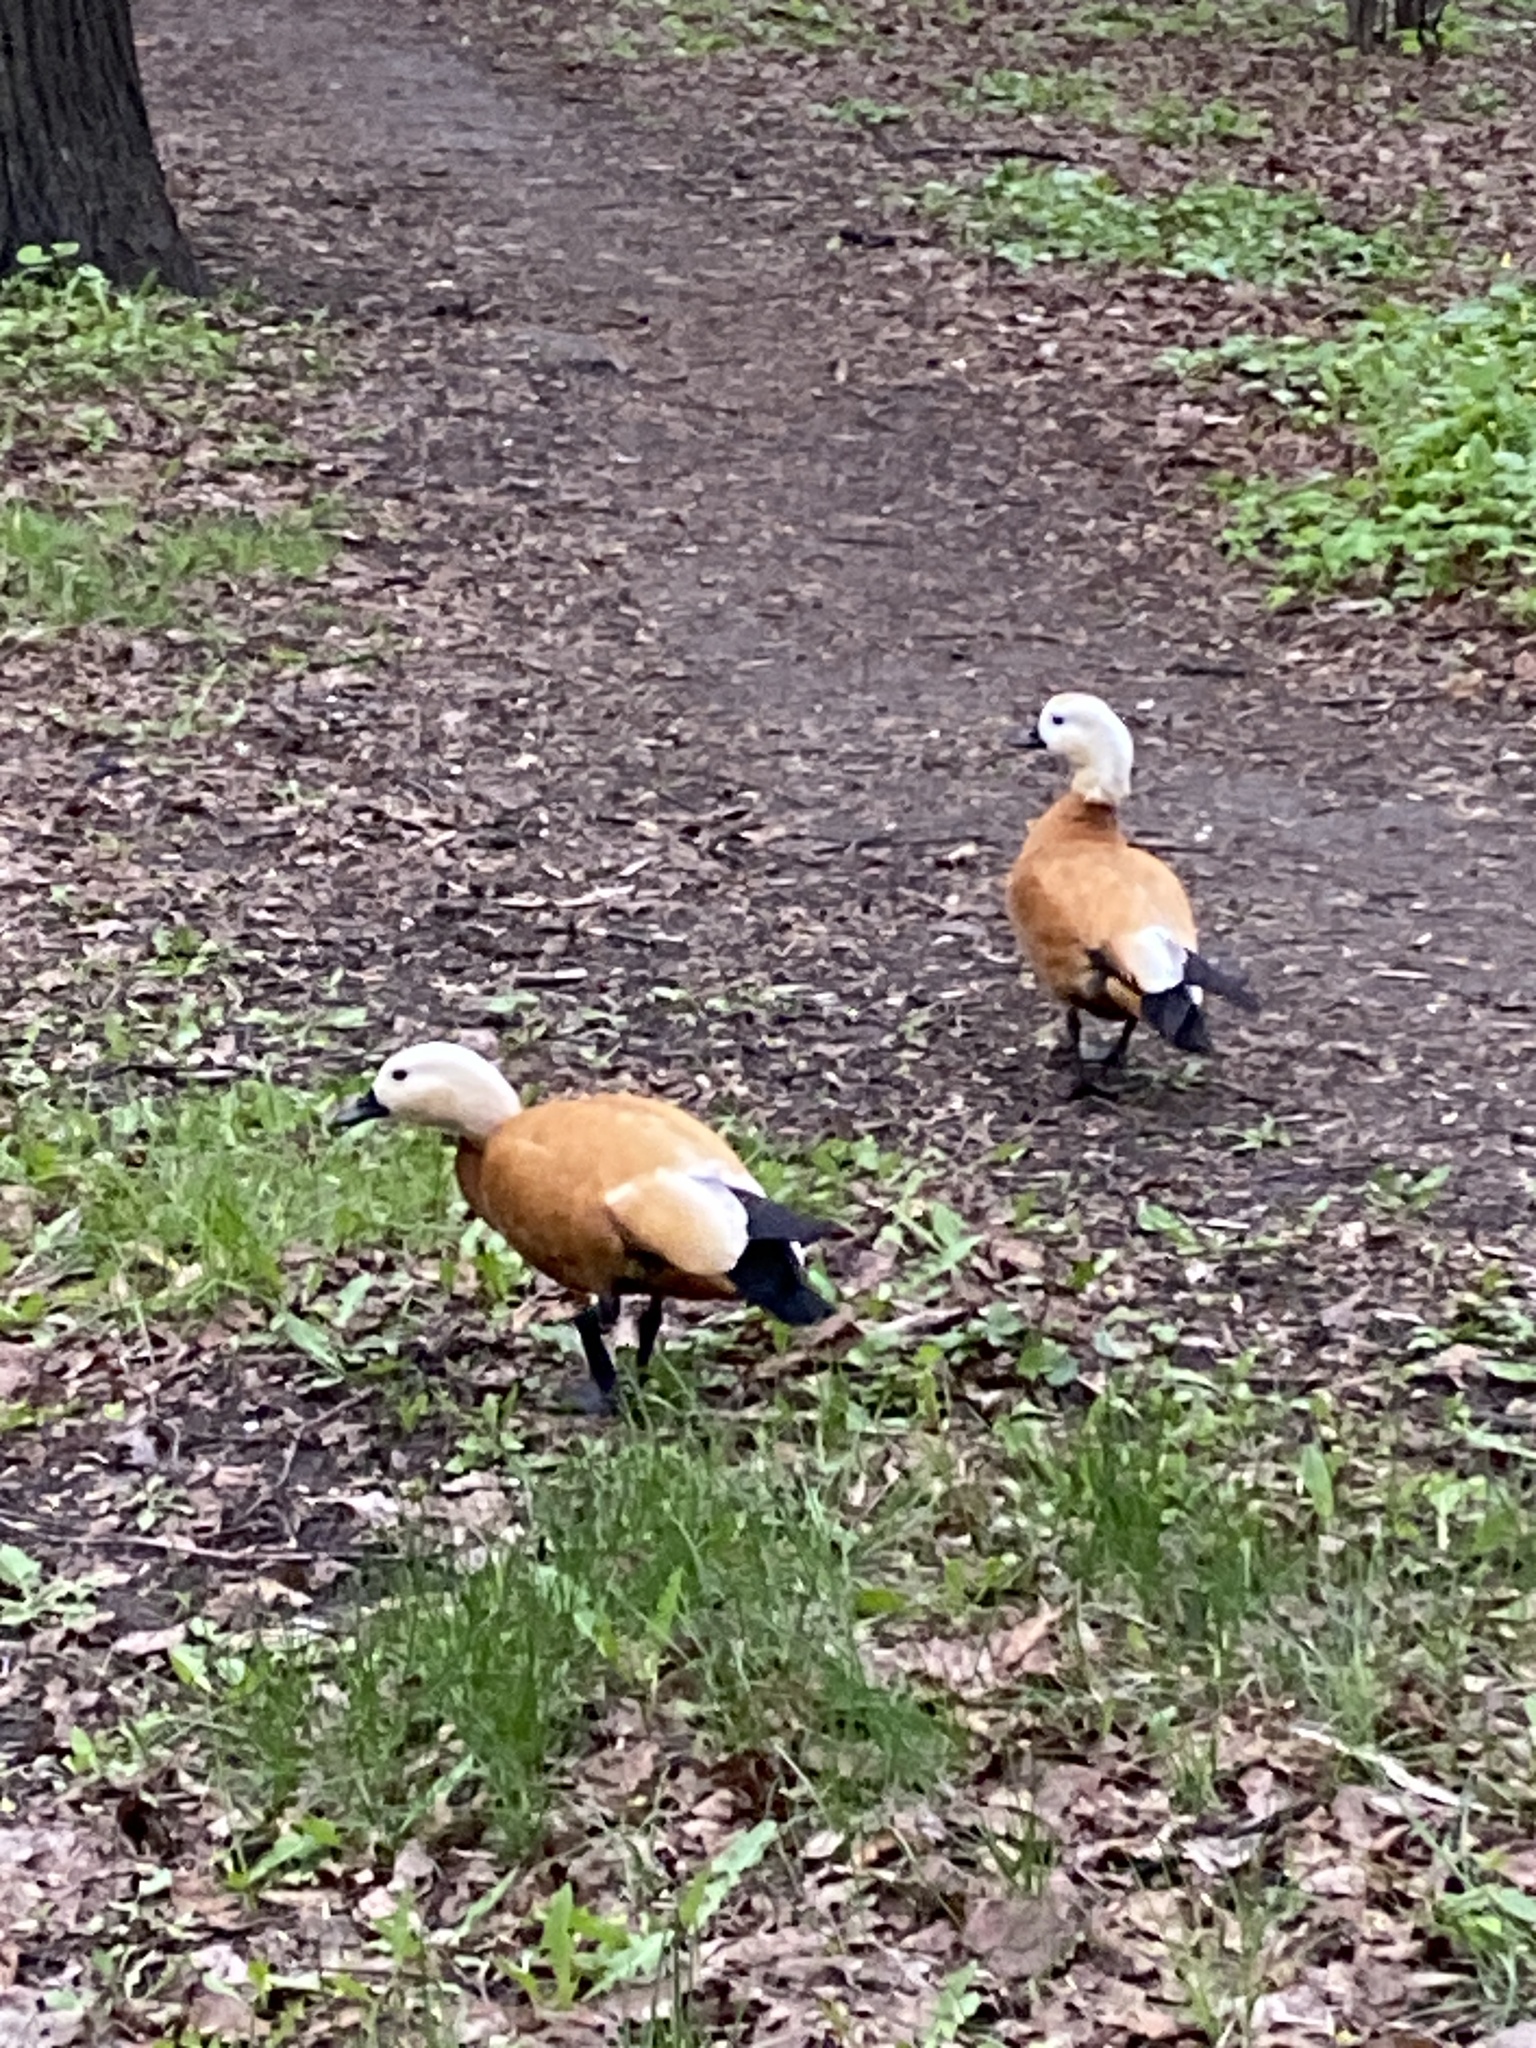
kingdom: Animalia
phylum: Chordata
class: Aves
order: Anseriformes
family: Anatidae
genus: Tadorna
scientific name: Tadorna ferruginea
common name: Ruddy shelduck
